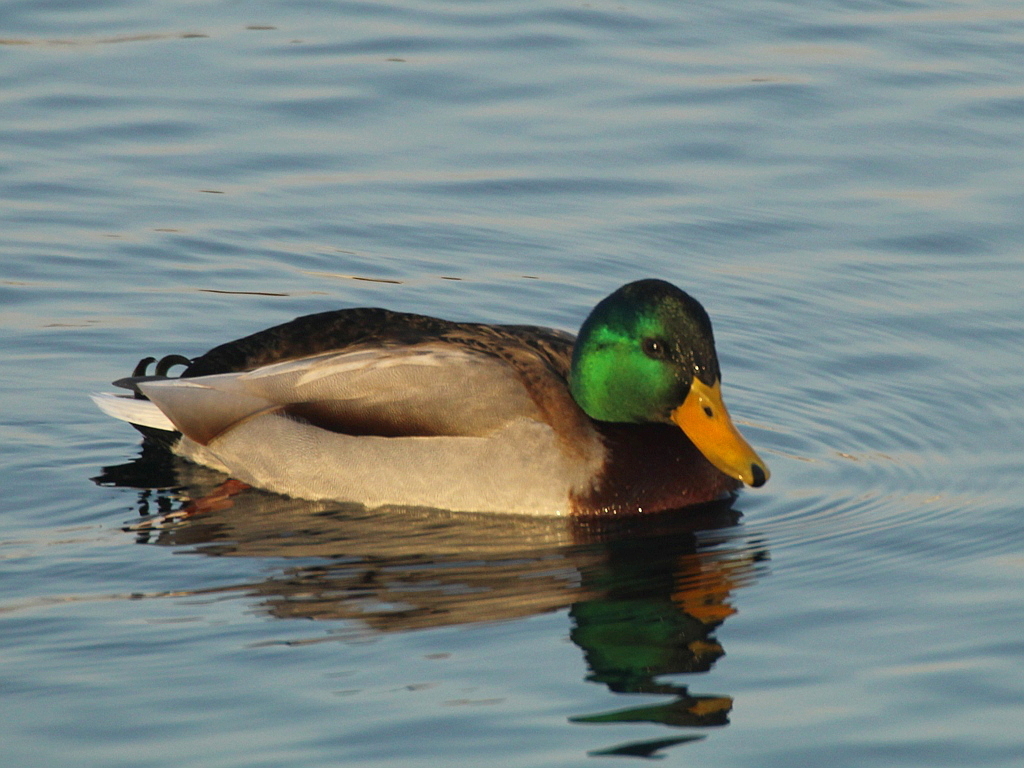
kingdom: Animalia
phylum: Chordata
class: Aves
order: Anseriformes
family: Anatidae
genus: Anas
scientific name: Anas platyrhynchos
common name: Mallard
